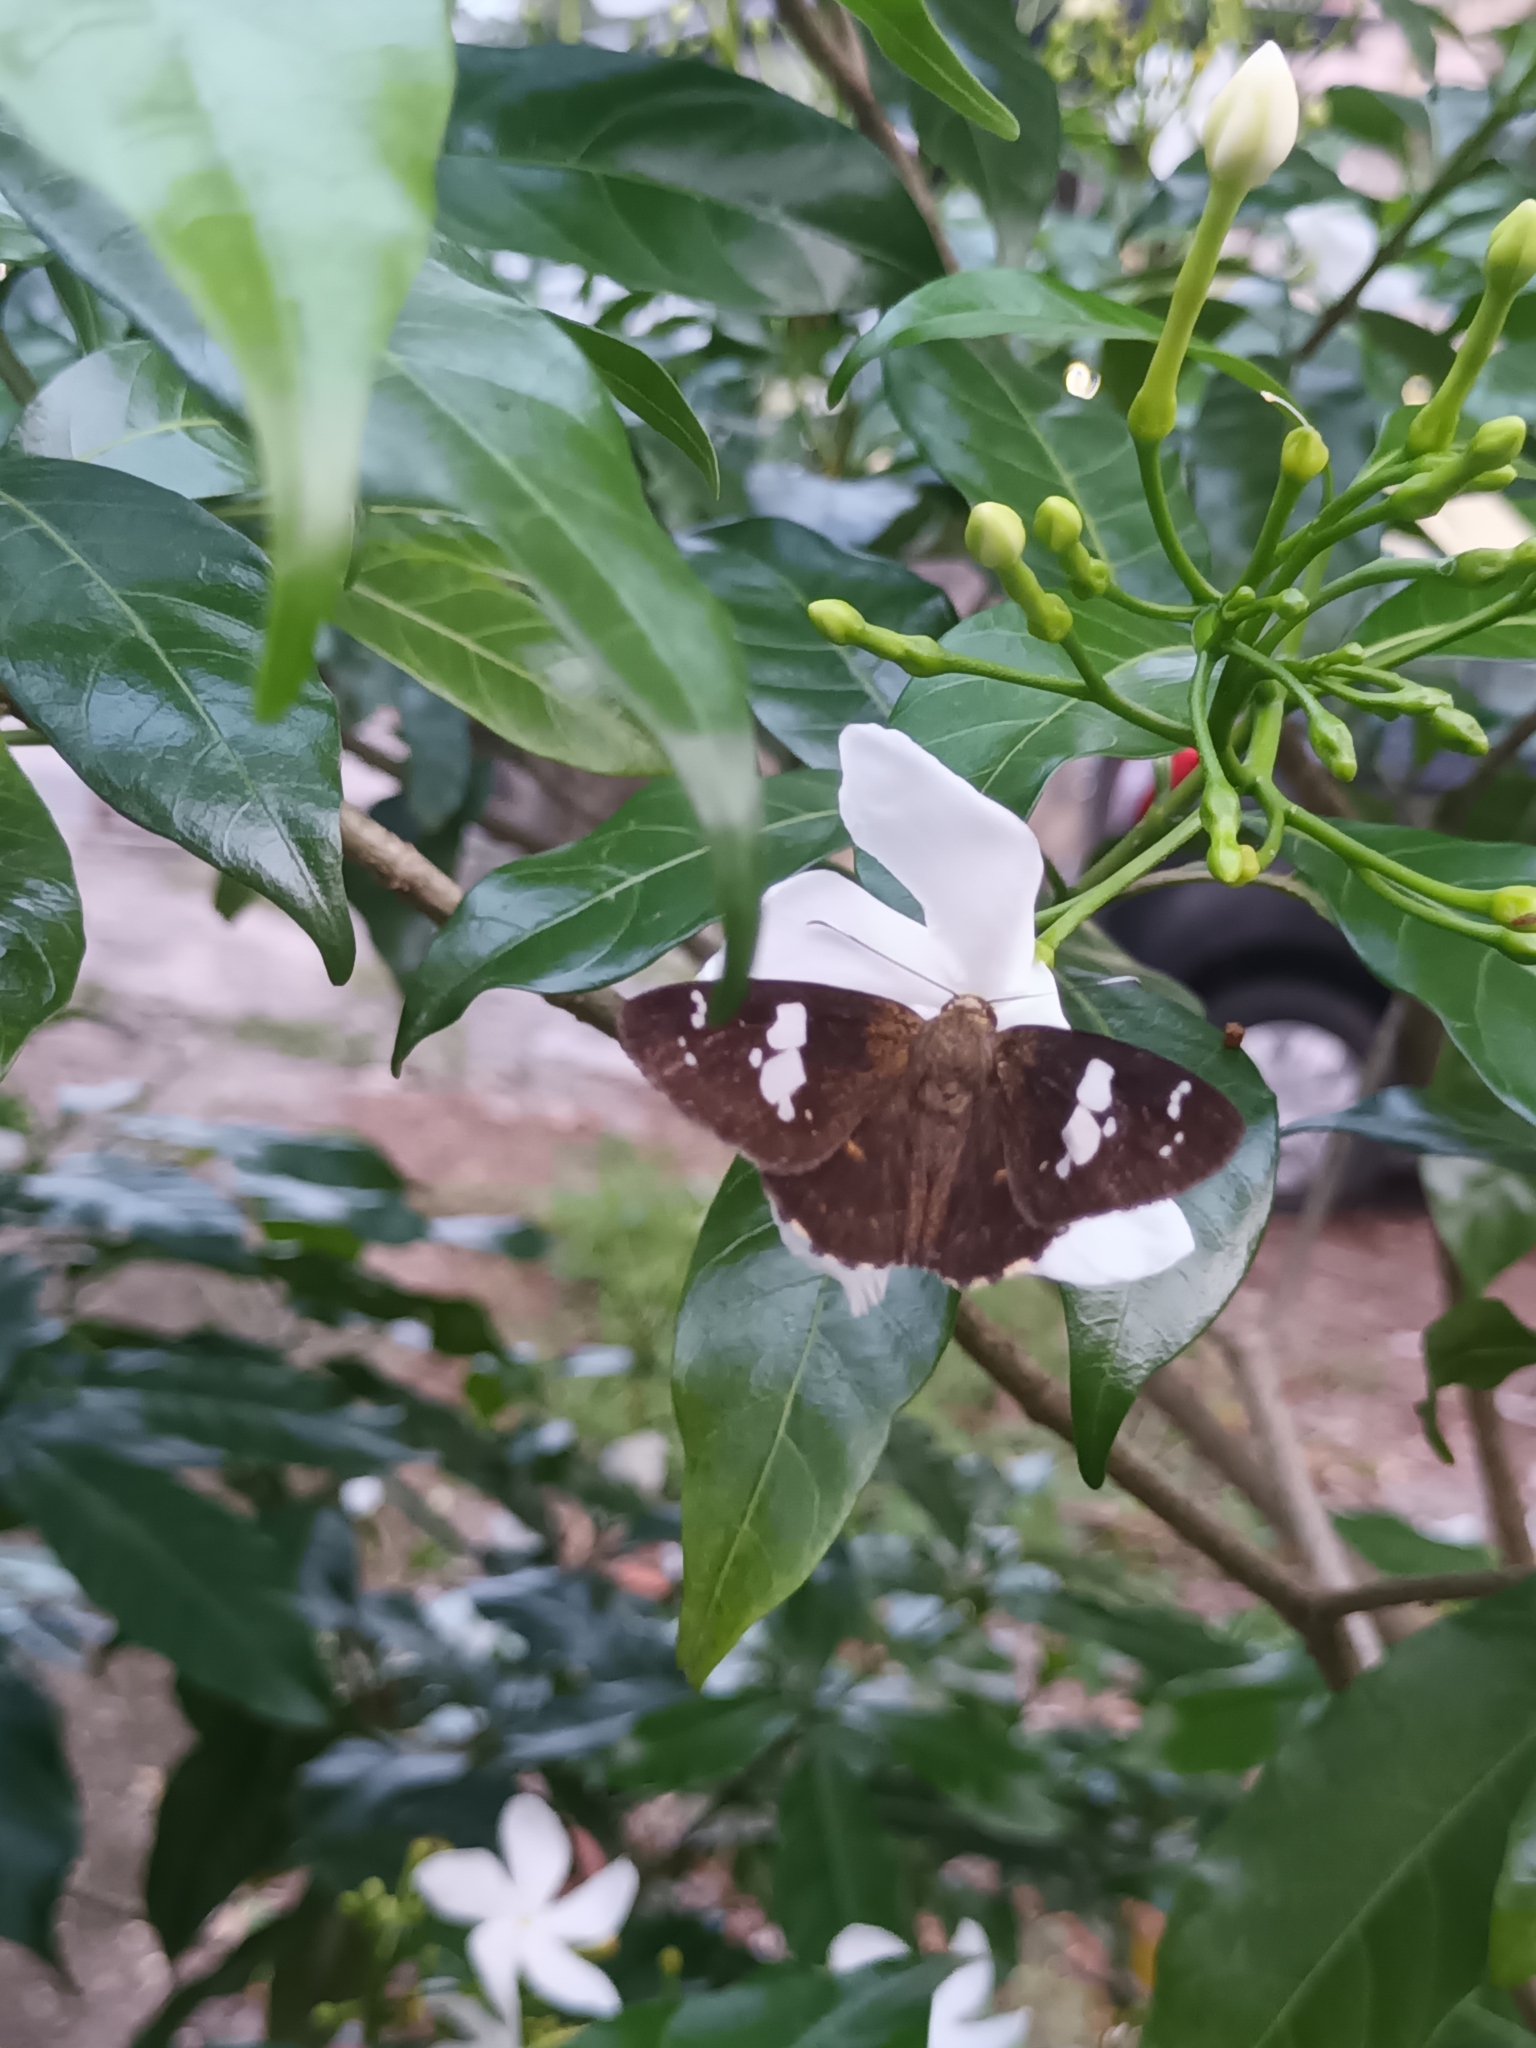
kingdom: Animalia
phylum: Arthropoda
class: Insecta
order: Lepidoptera
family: Hesperiidae
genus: Celaenorrhinus
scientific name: Celaenorrhinus putra
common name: Restricted spotted flat
